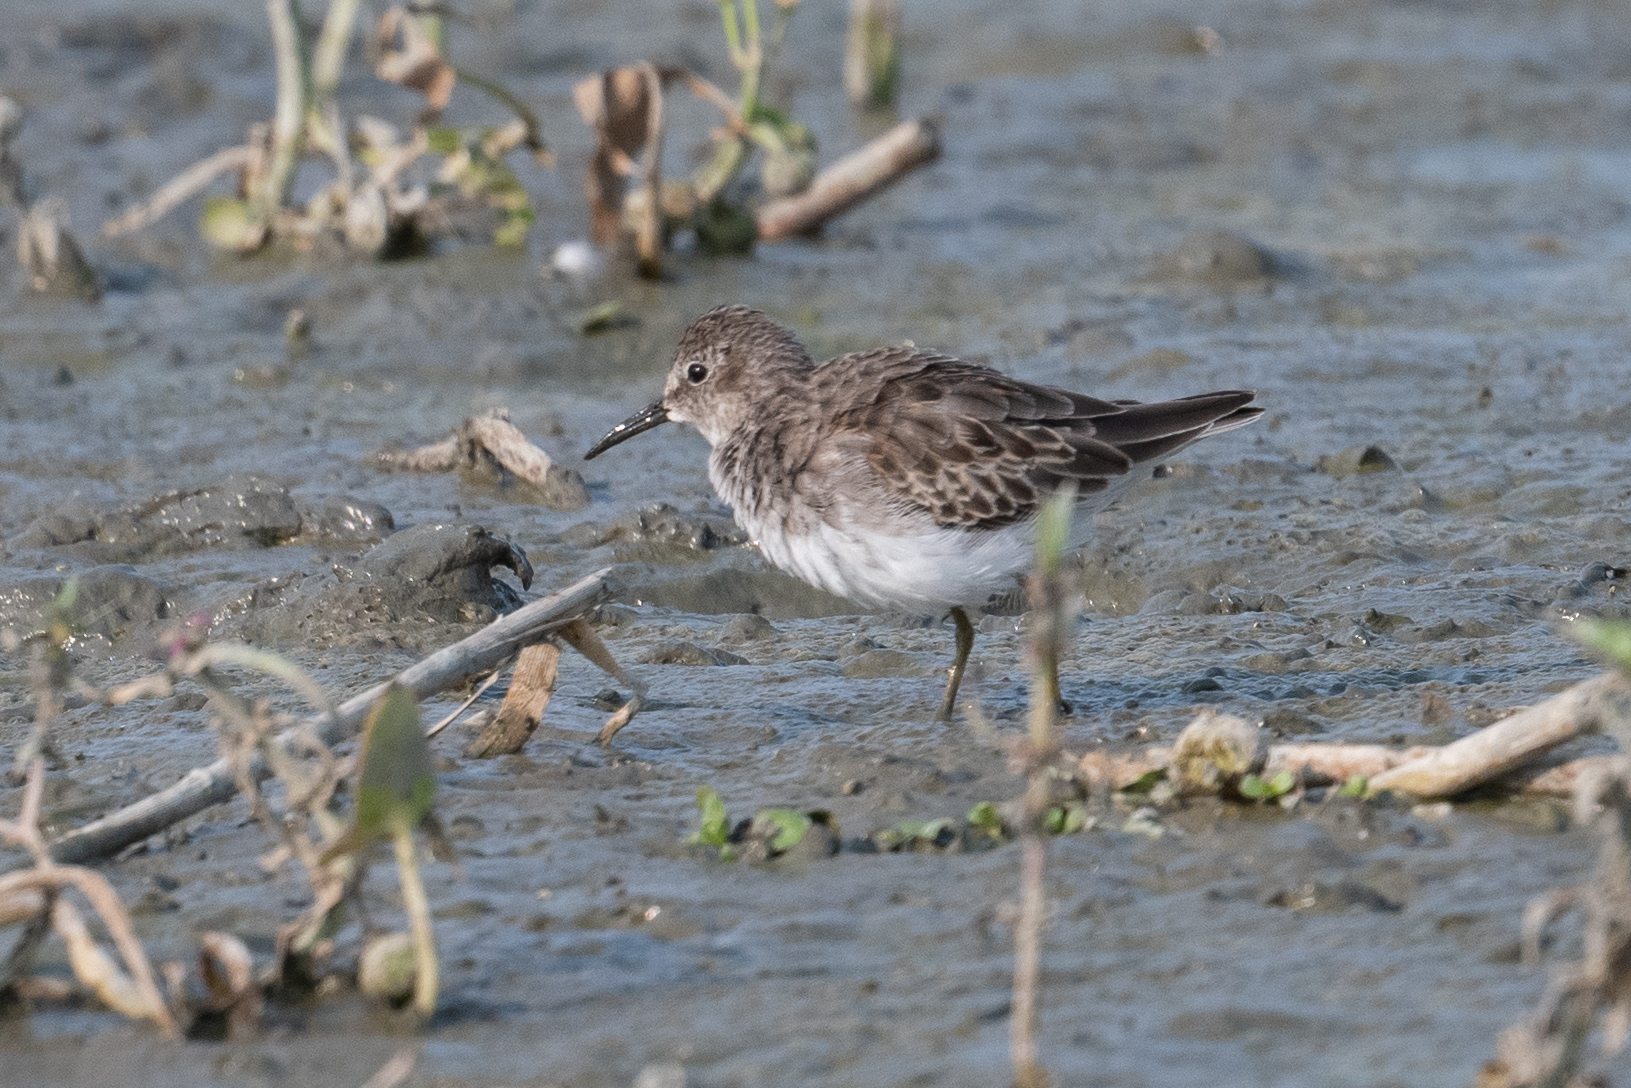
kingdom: Animalia
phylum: Chordata
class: Aves
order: Charadriiformes
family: Scolopacidae
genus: Calidris
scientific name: Calidris minutilla
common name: Least sandpiper
